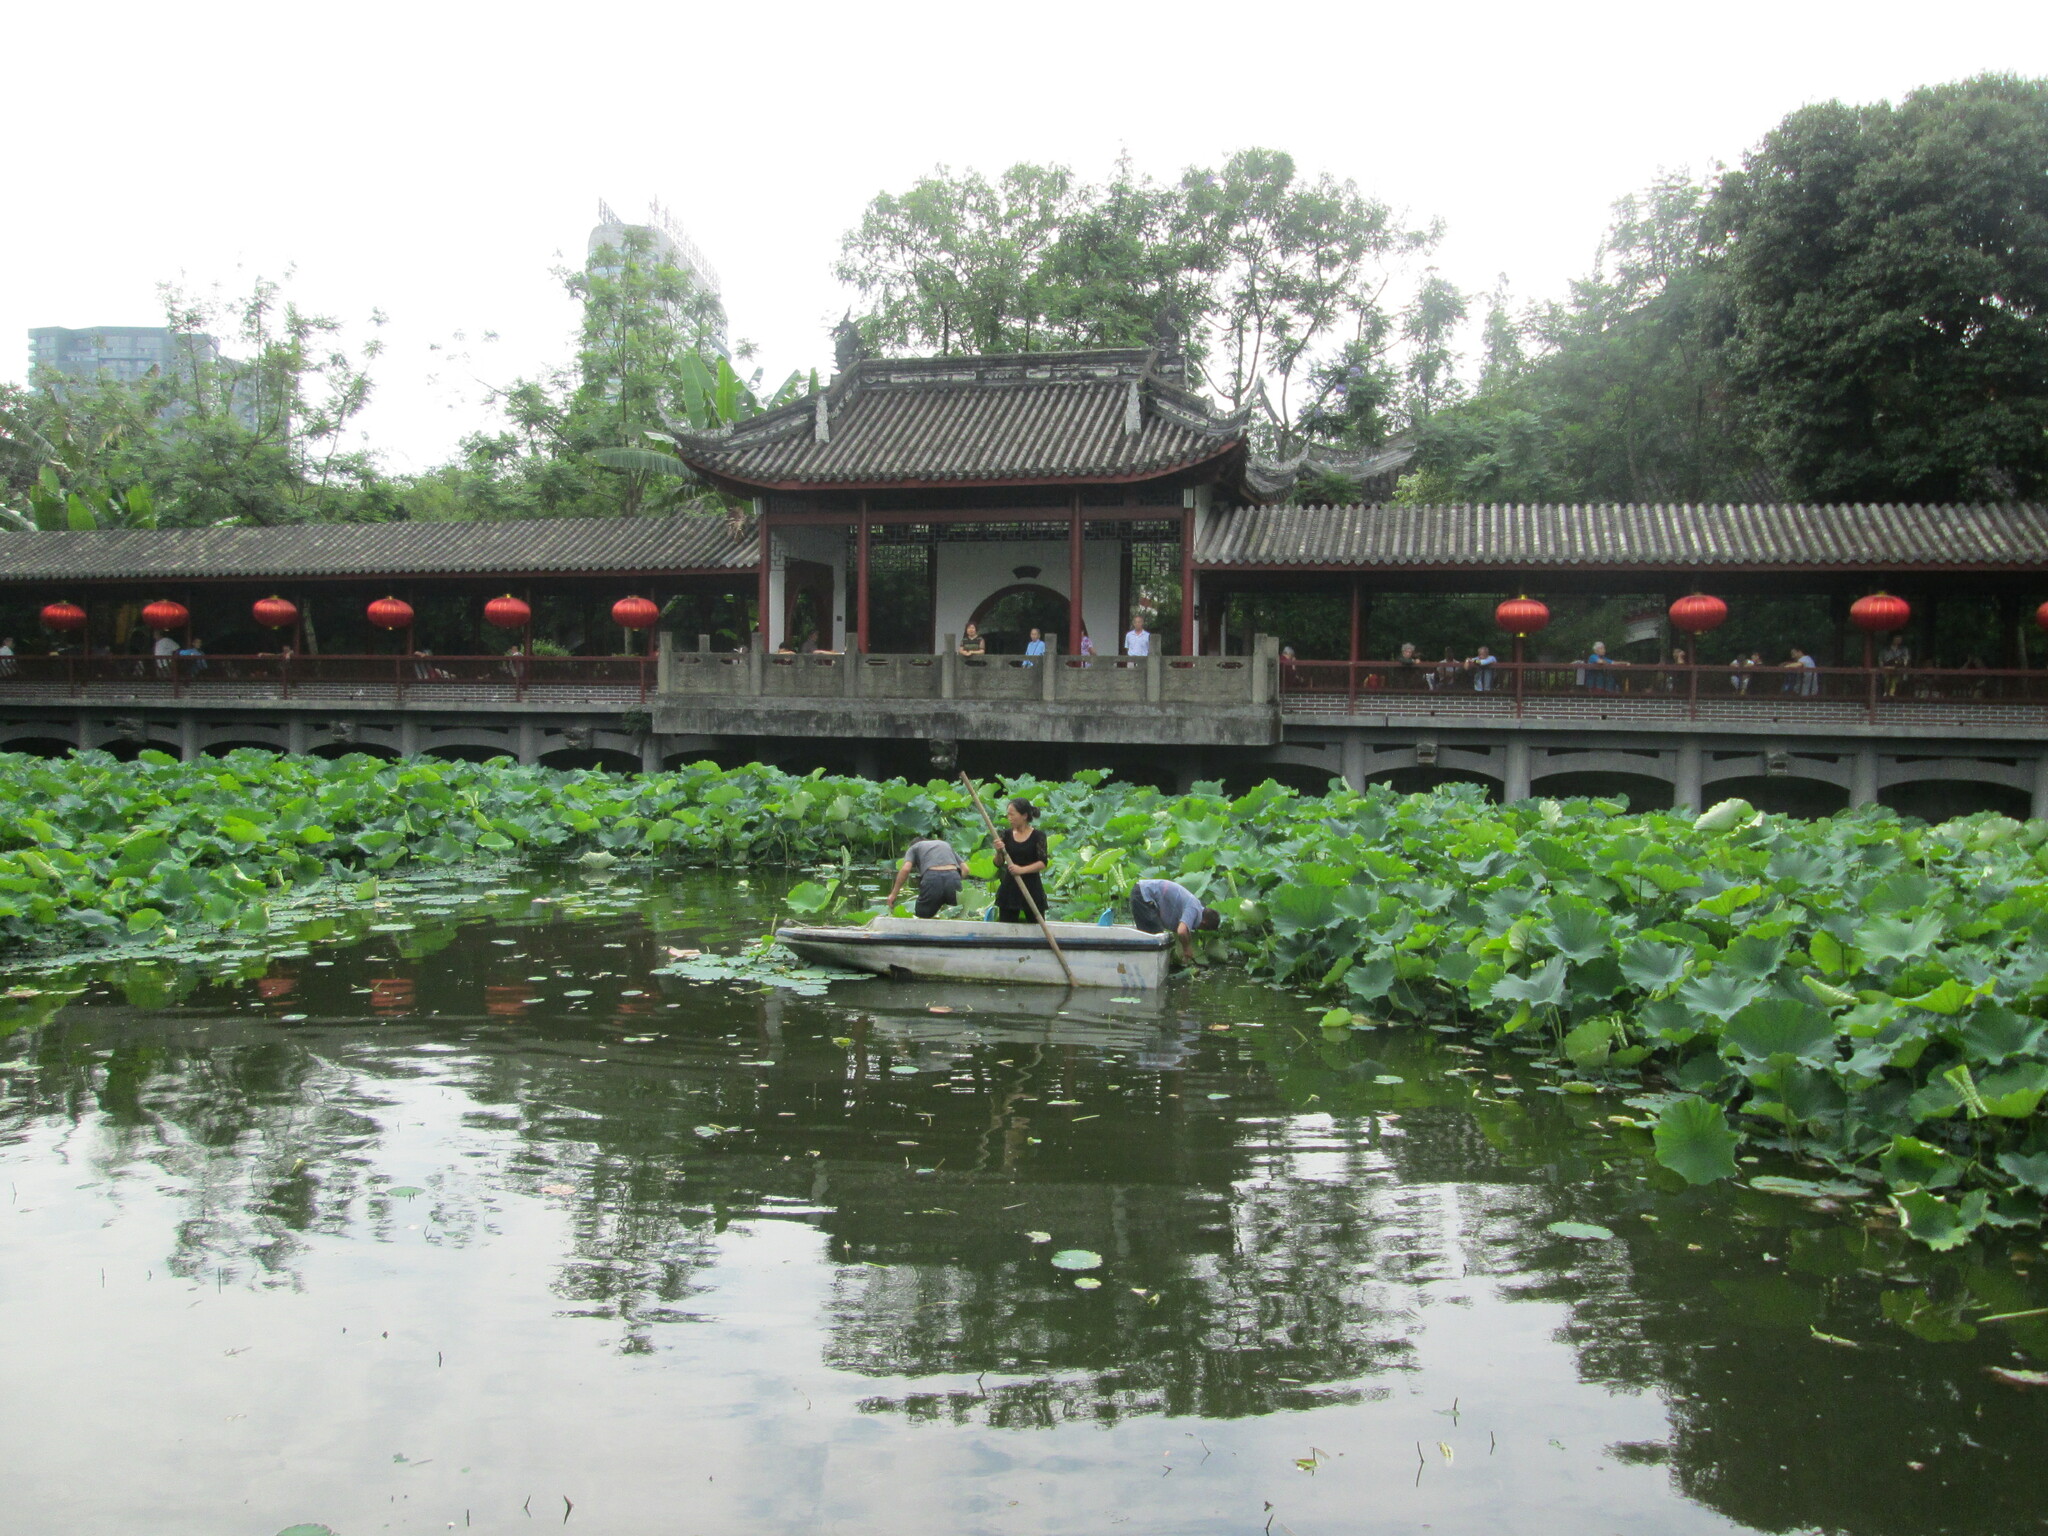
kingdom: Plantae
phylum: Tracheophyta
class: Magnoliopsida
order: Proteales
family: Nelumbonaceae
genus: Nelumbo
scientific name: Nelumbo nucifera
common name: Sacred lotus
